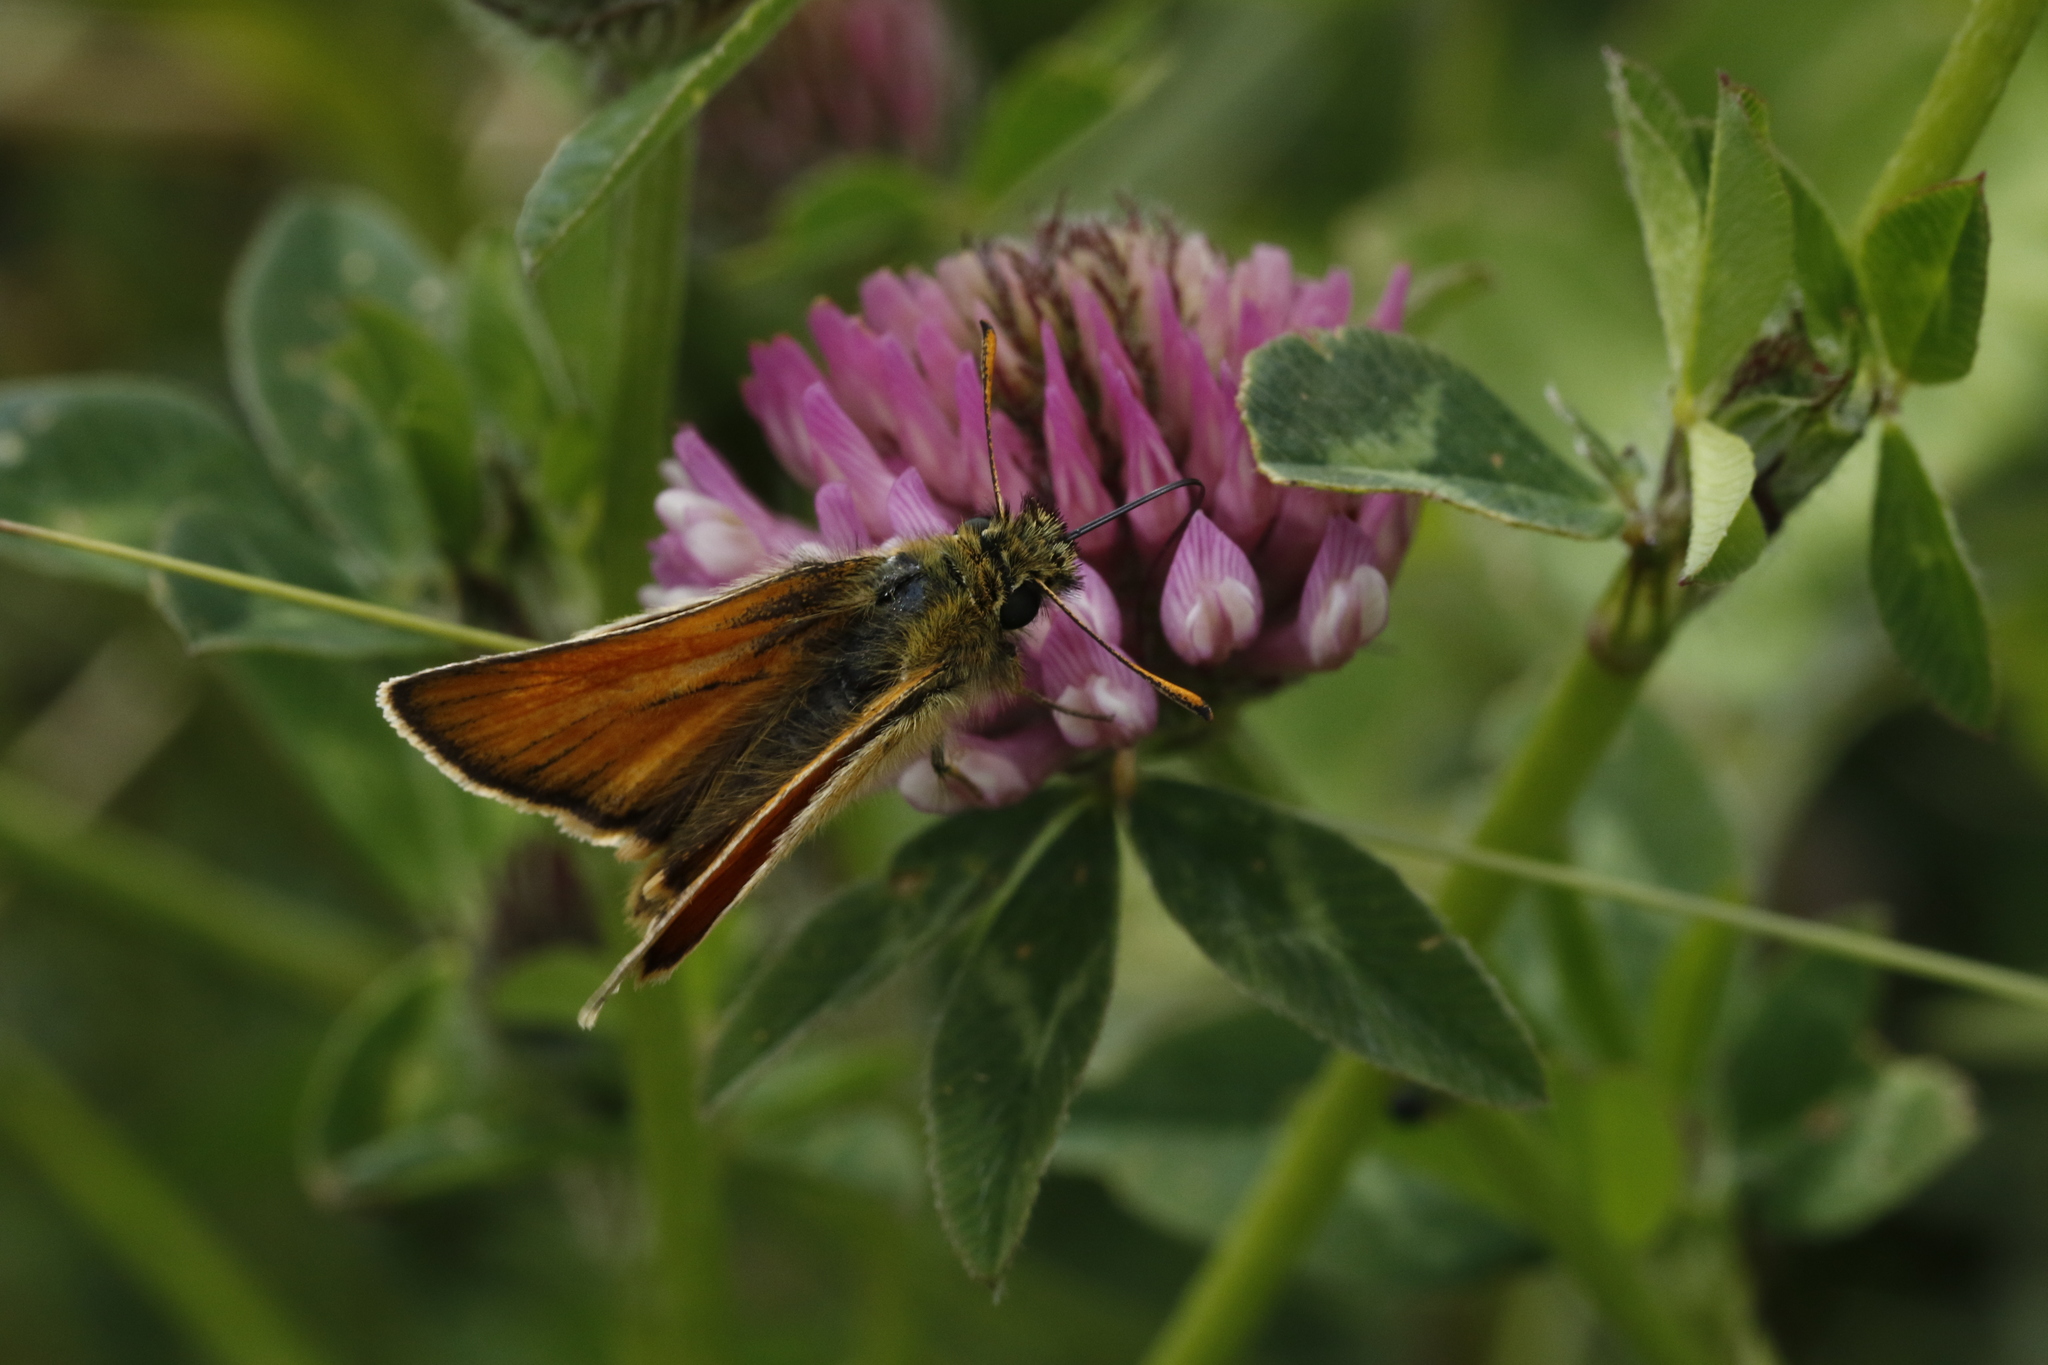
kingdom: Animalia
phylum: Arthropoda
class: Insecta
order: Lepidoptera
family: Hesperiidae
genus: Thymelicus
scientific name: Thymelicus sylvestris
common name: Small skipper
